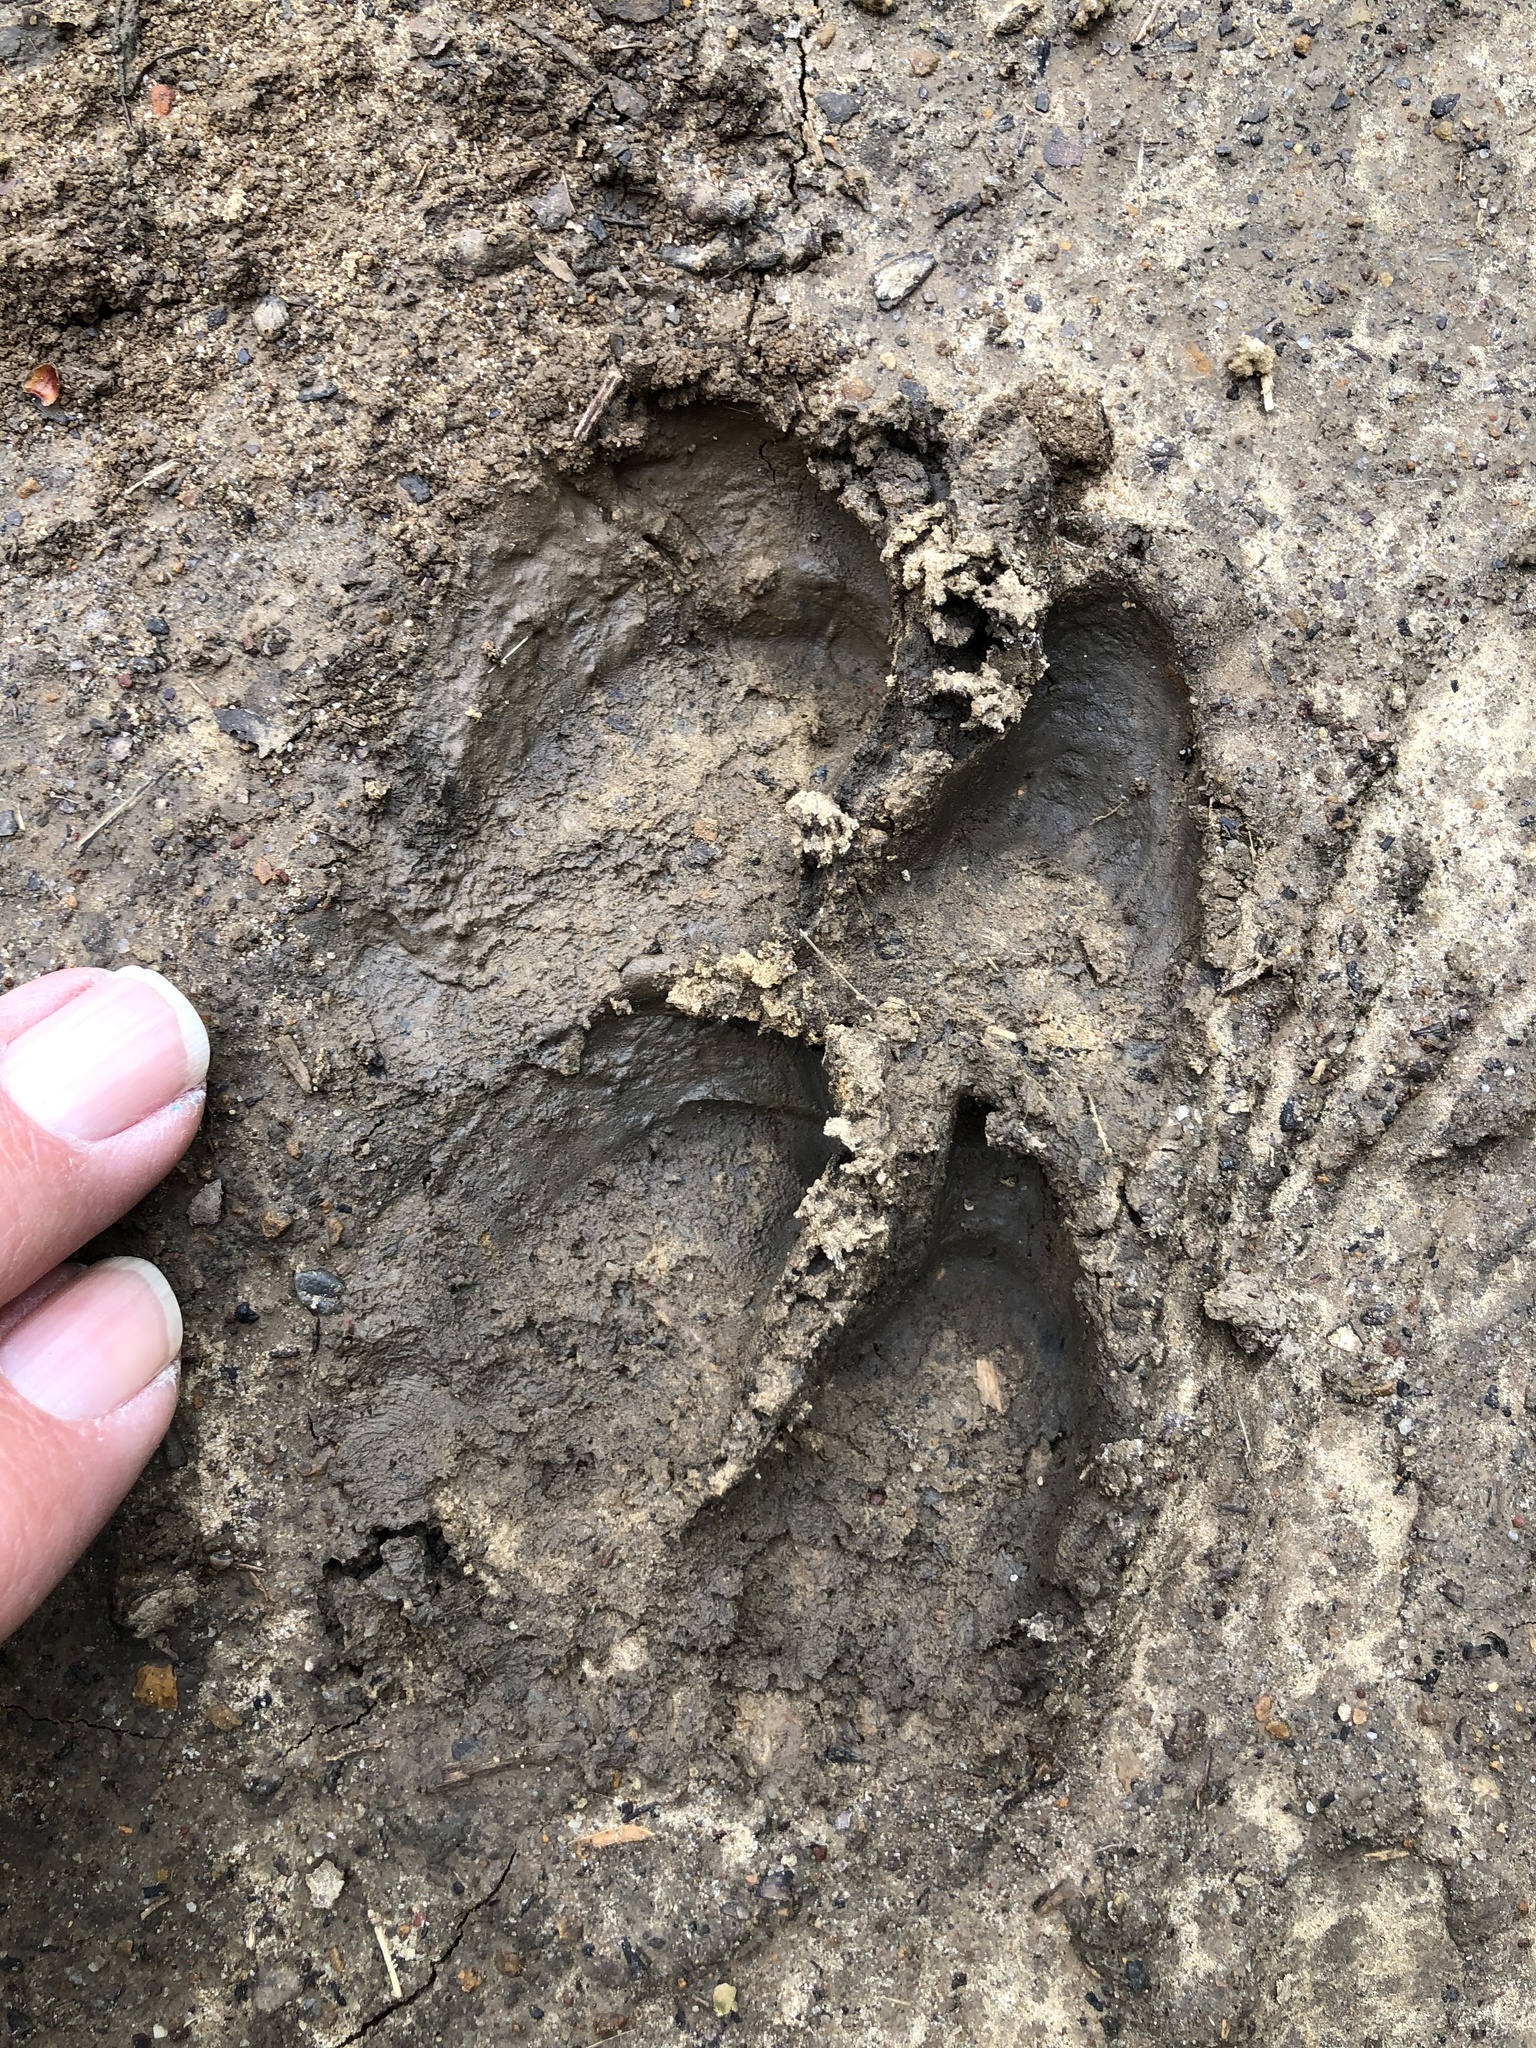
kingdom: Animalia
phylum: Chordata
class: Mammalia
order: Artiodactyla
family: Suidae
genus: Sus
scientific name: Sus scrofa
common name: Wild boar
